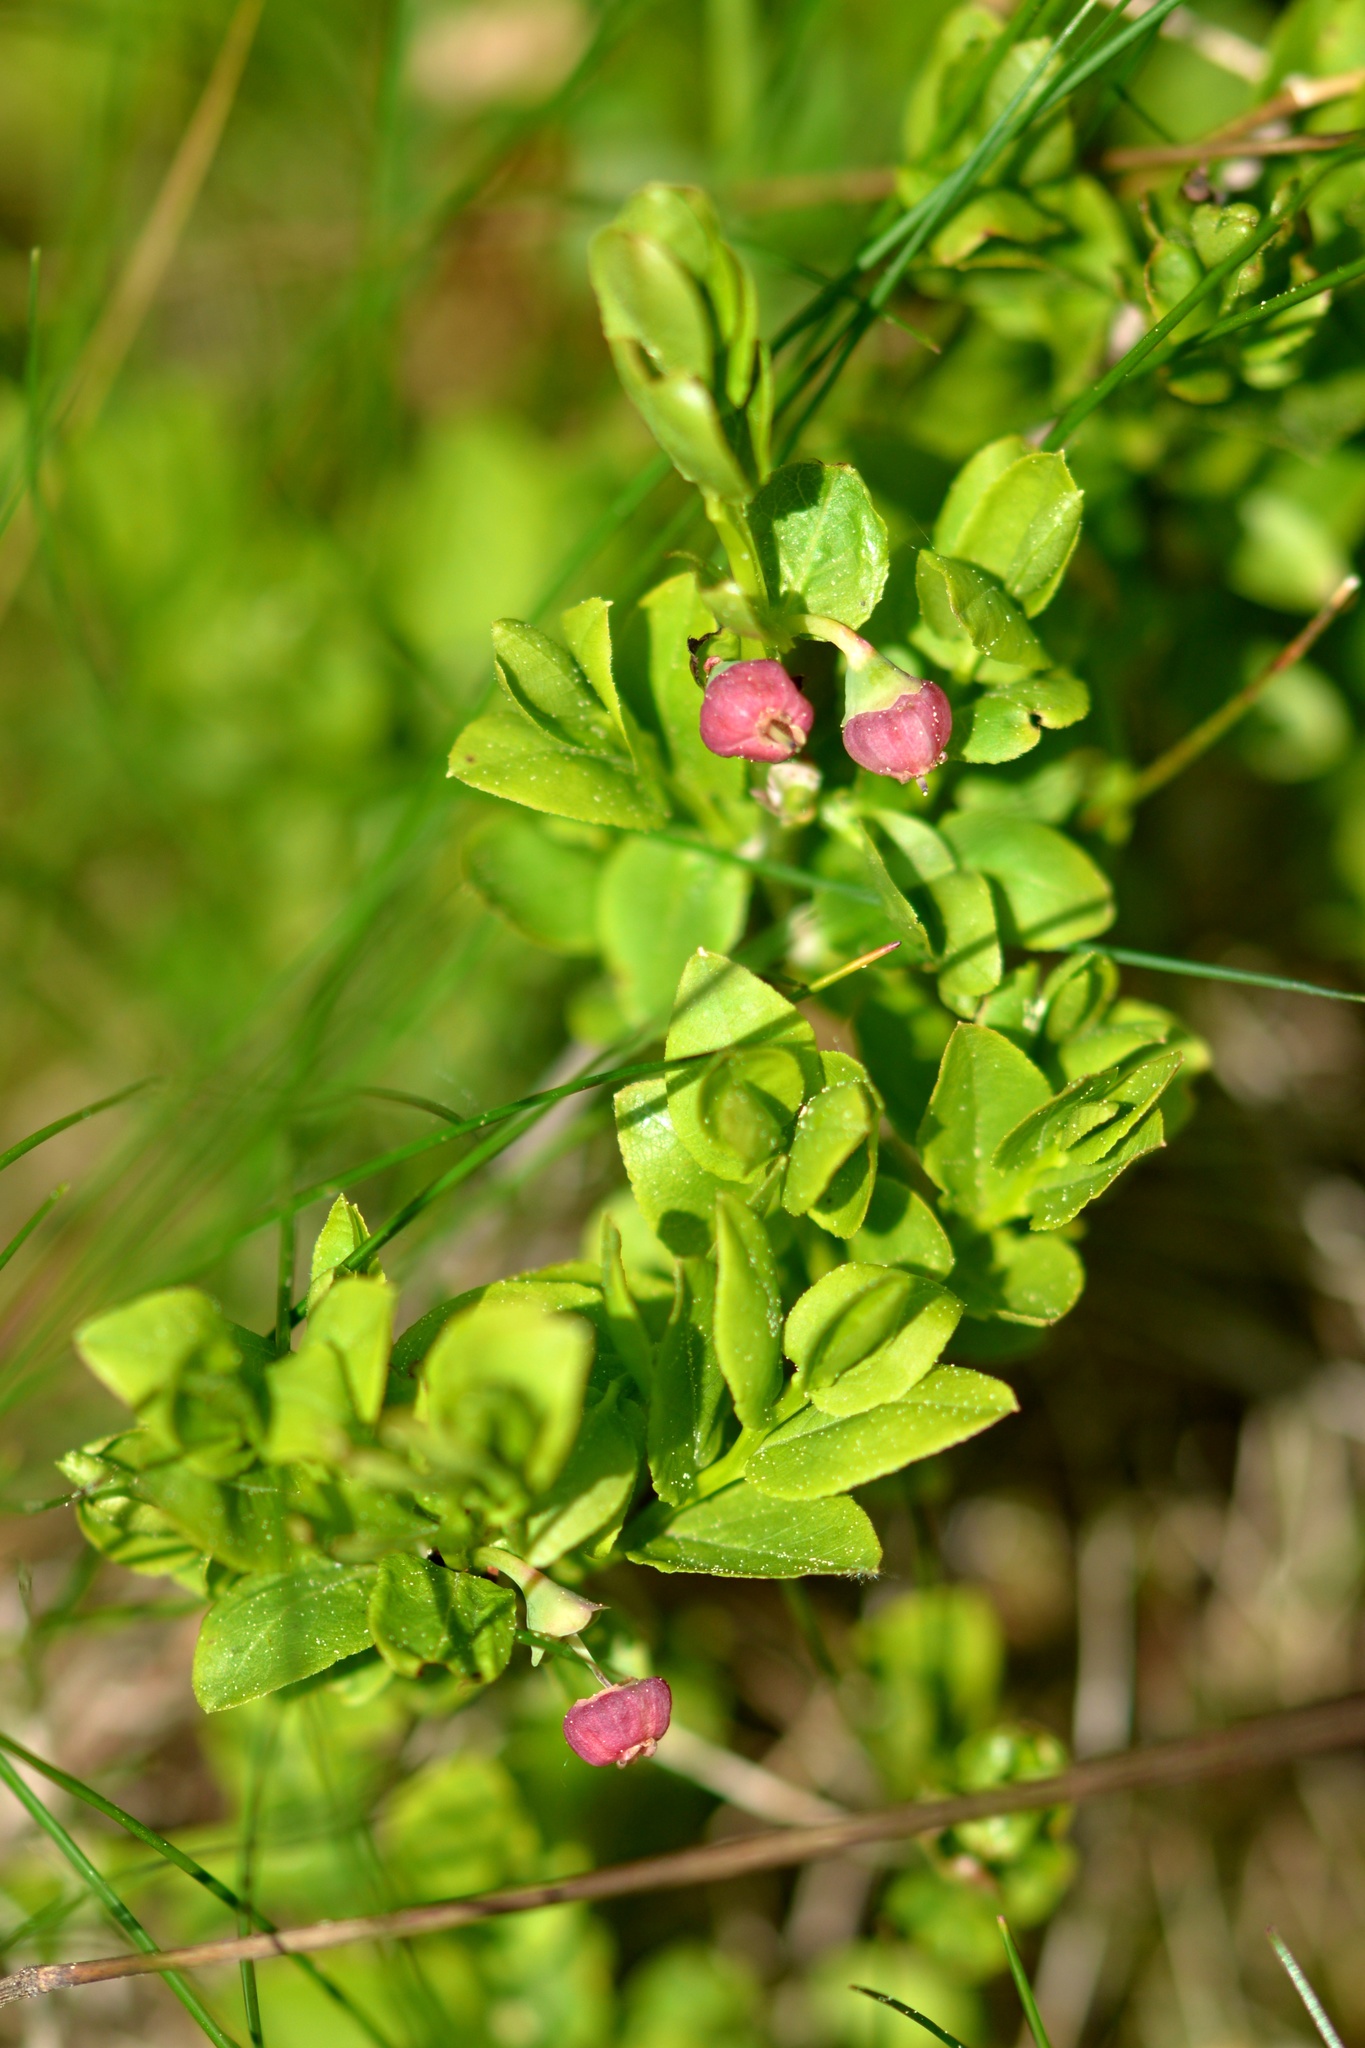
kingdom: Plantae
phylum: Tracheophyta
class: Magnoliopsida
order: Ericales
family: Ericaceae
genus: Vaccinium
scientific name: Vaccinium myrtillus
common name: Bilberry
